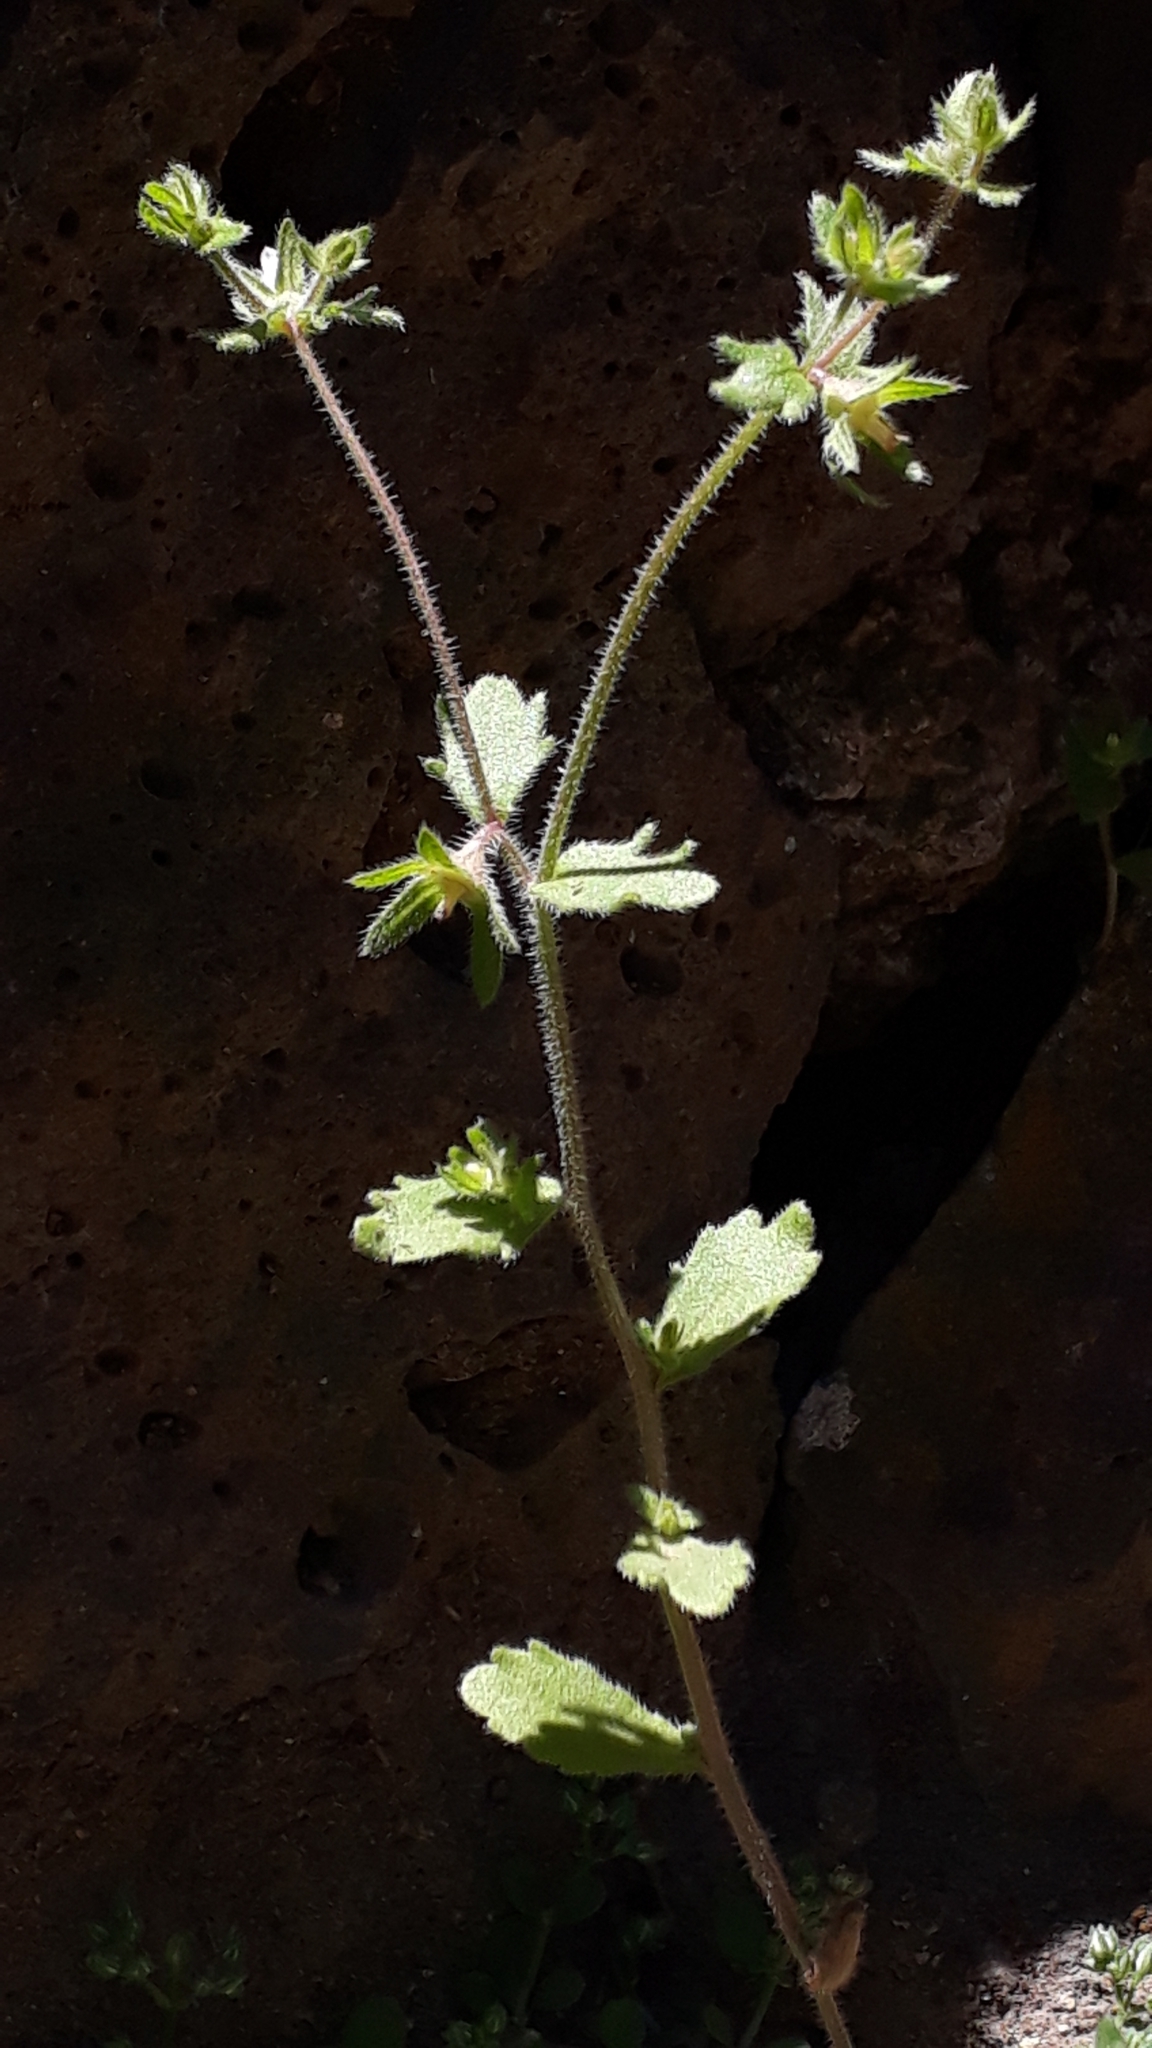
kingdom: Plantae
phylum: Tracheophyta
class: Magnoliopsida
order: Asterales
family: Campanulaceae
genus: Campanula
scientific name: Campanula erinus
